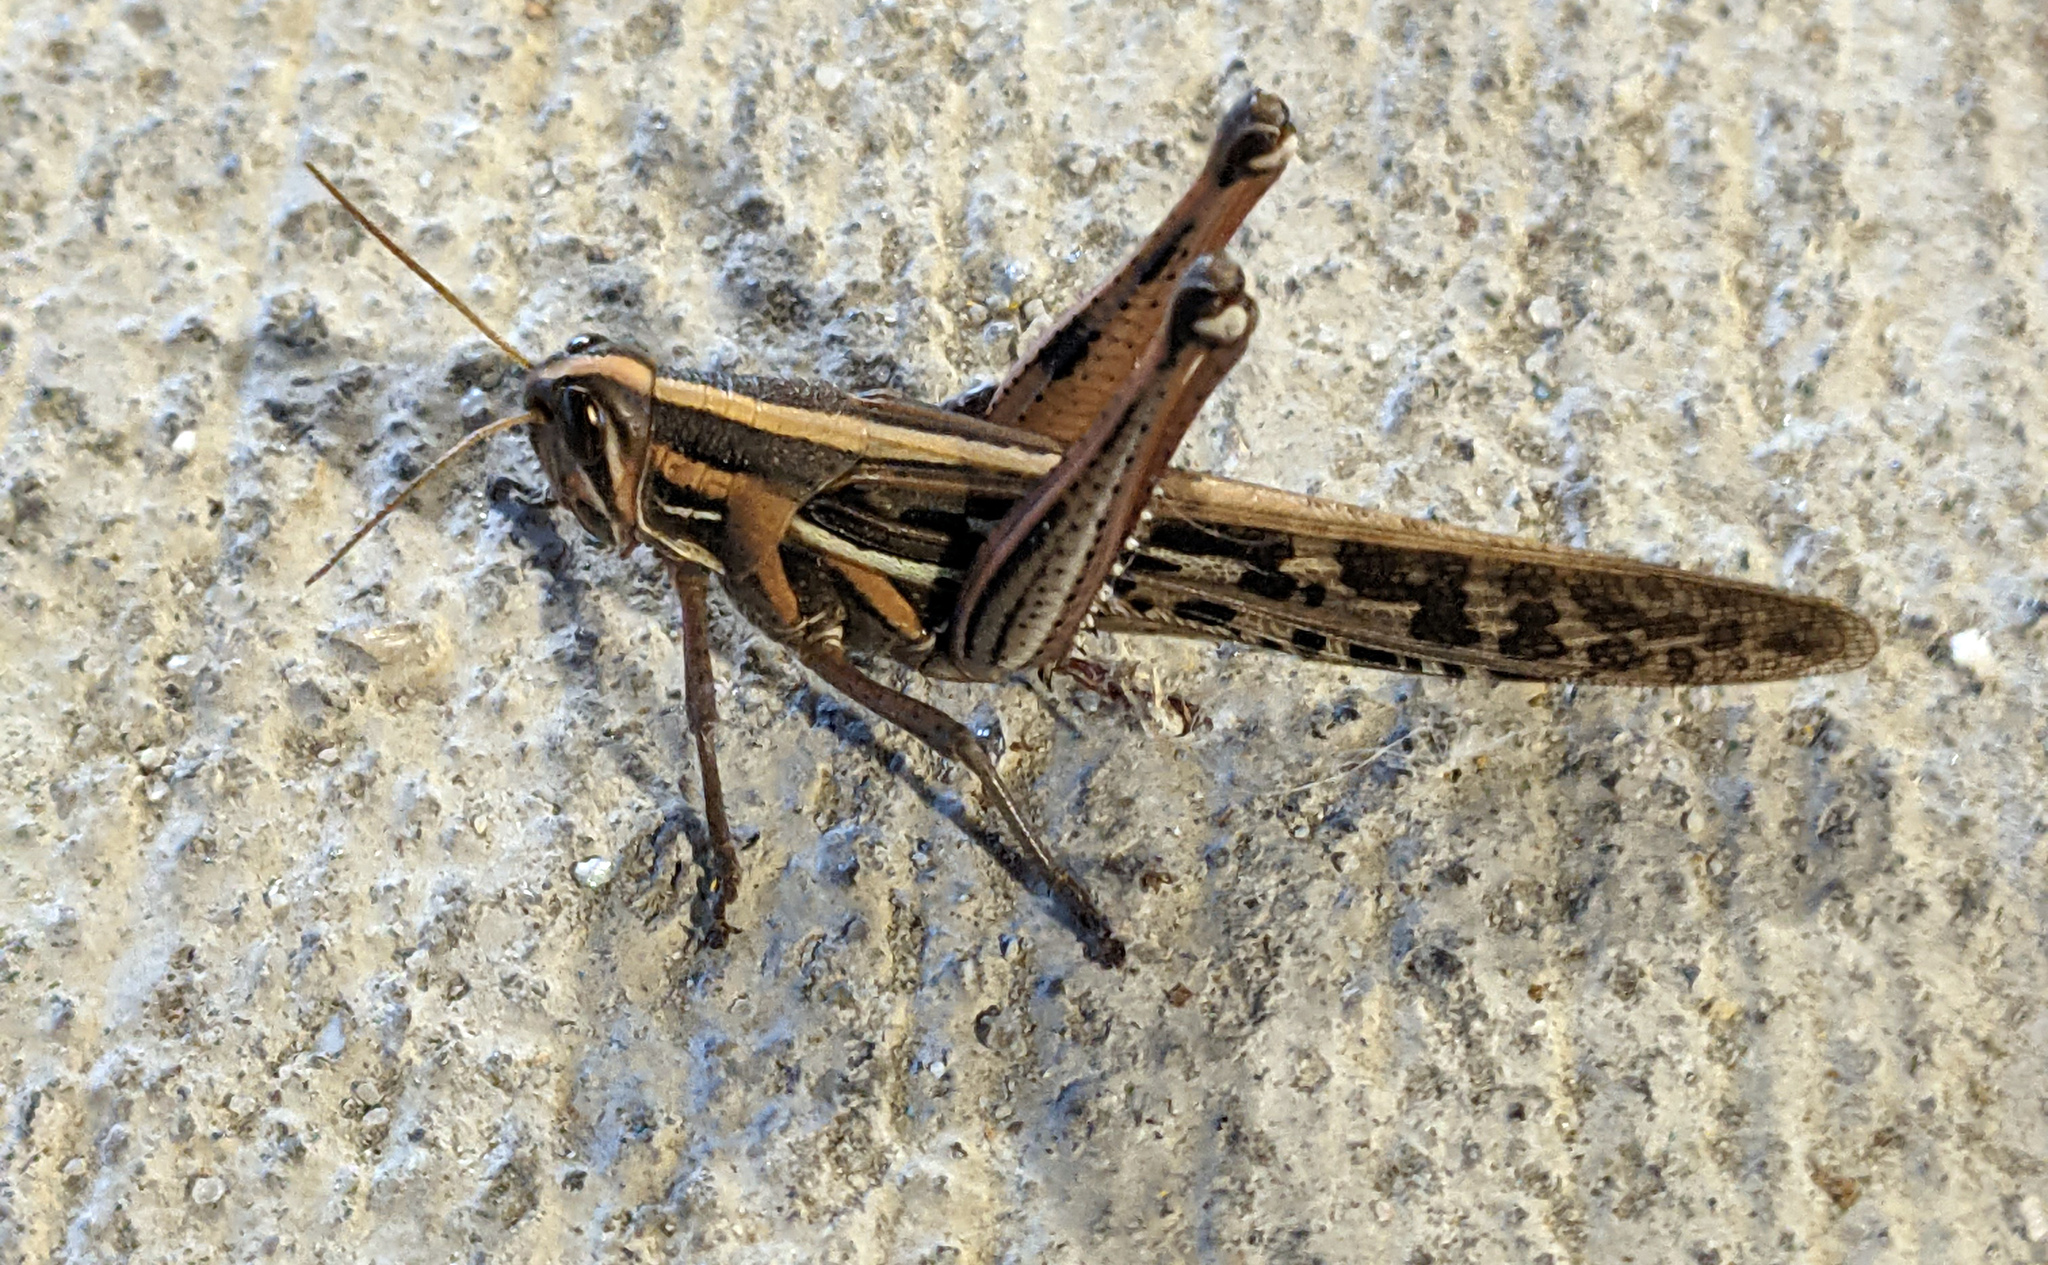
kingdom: Animalia
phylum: Arthropoda
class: Insecta
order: Orthoptera
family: Acrididae
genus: Schistocerca
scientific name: Schistocerca americana
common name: American bird locust
